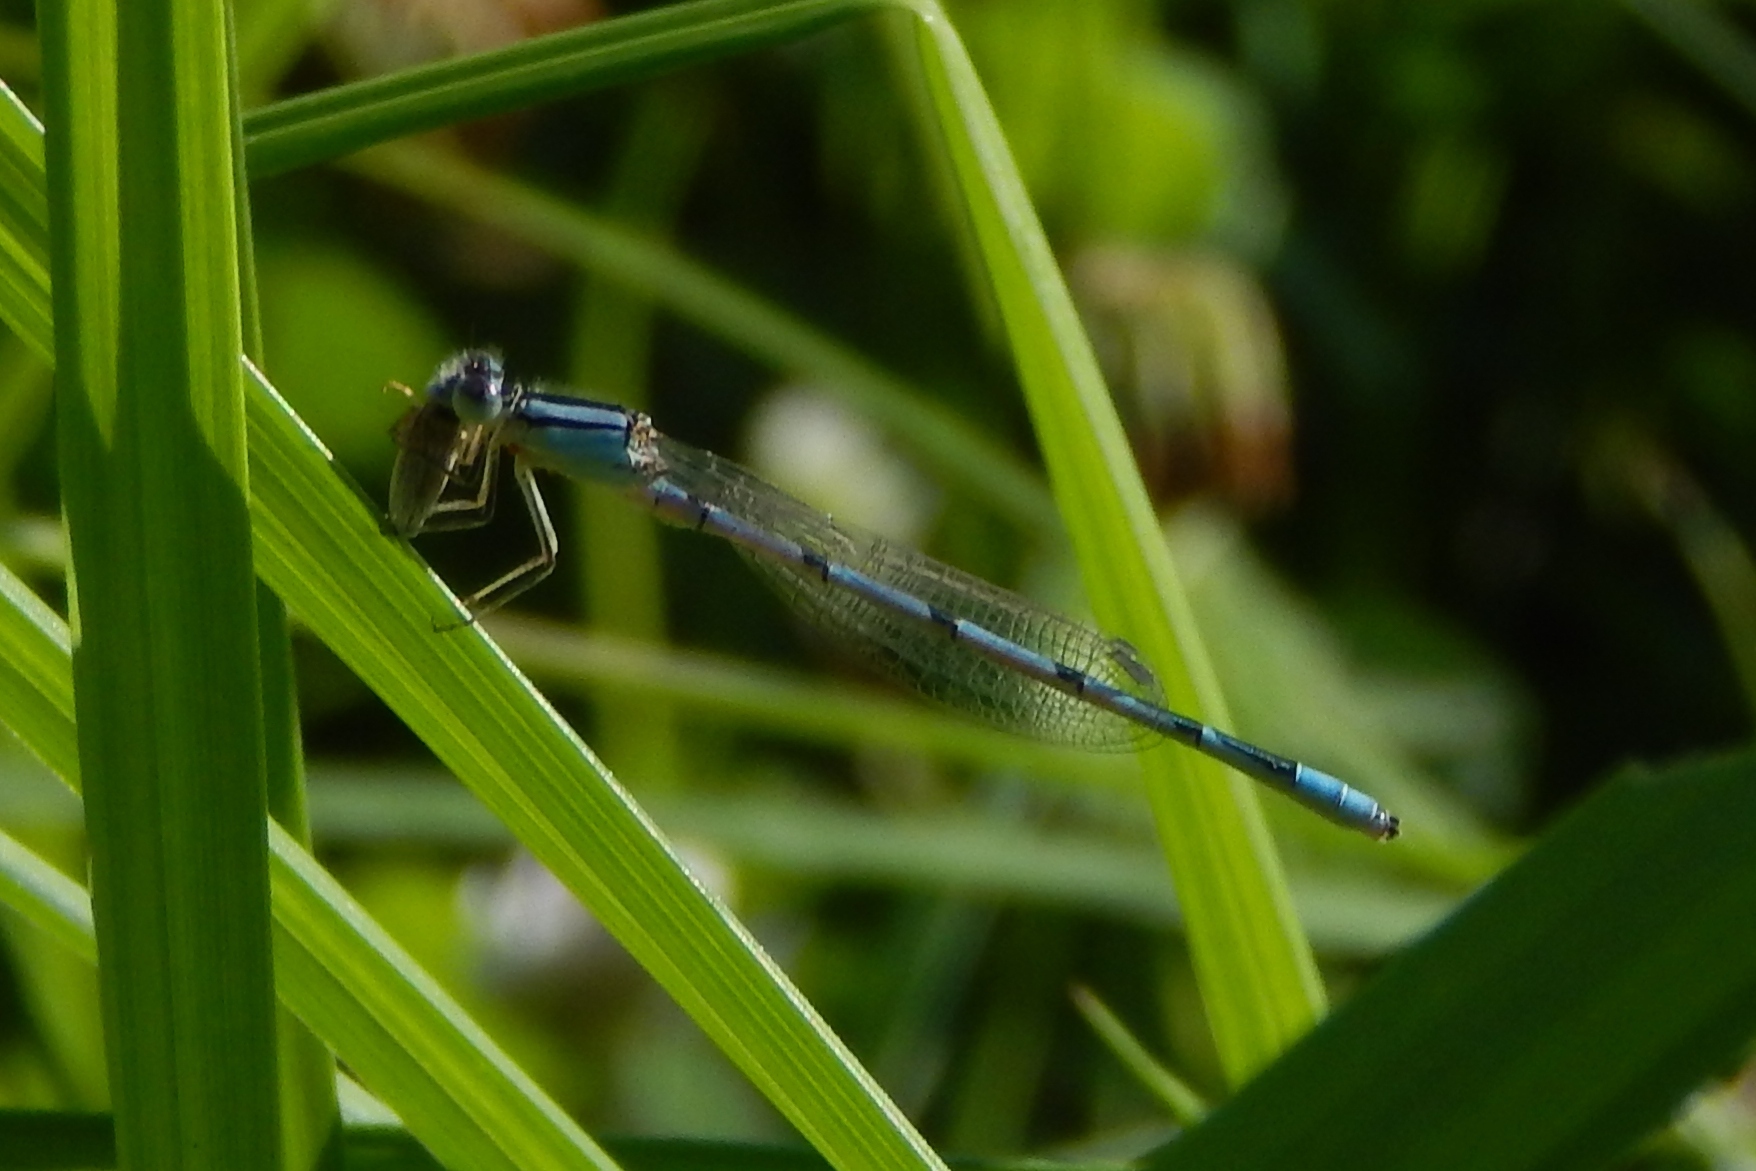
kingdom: Animalia
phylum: Arthropoda
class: Insecta
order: Odonata
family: Coenagrionidae
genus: Enallagma
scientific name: Enallagma civile
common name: Damselfly
